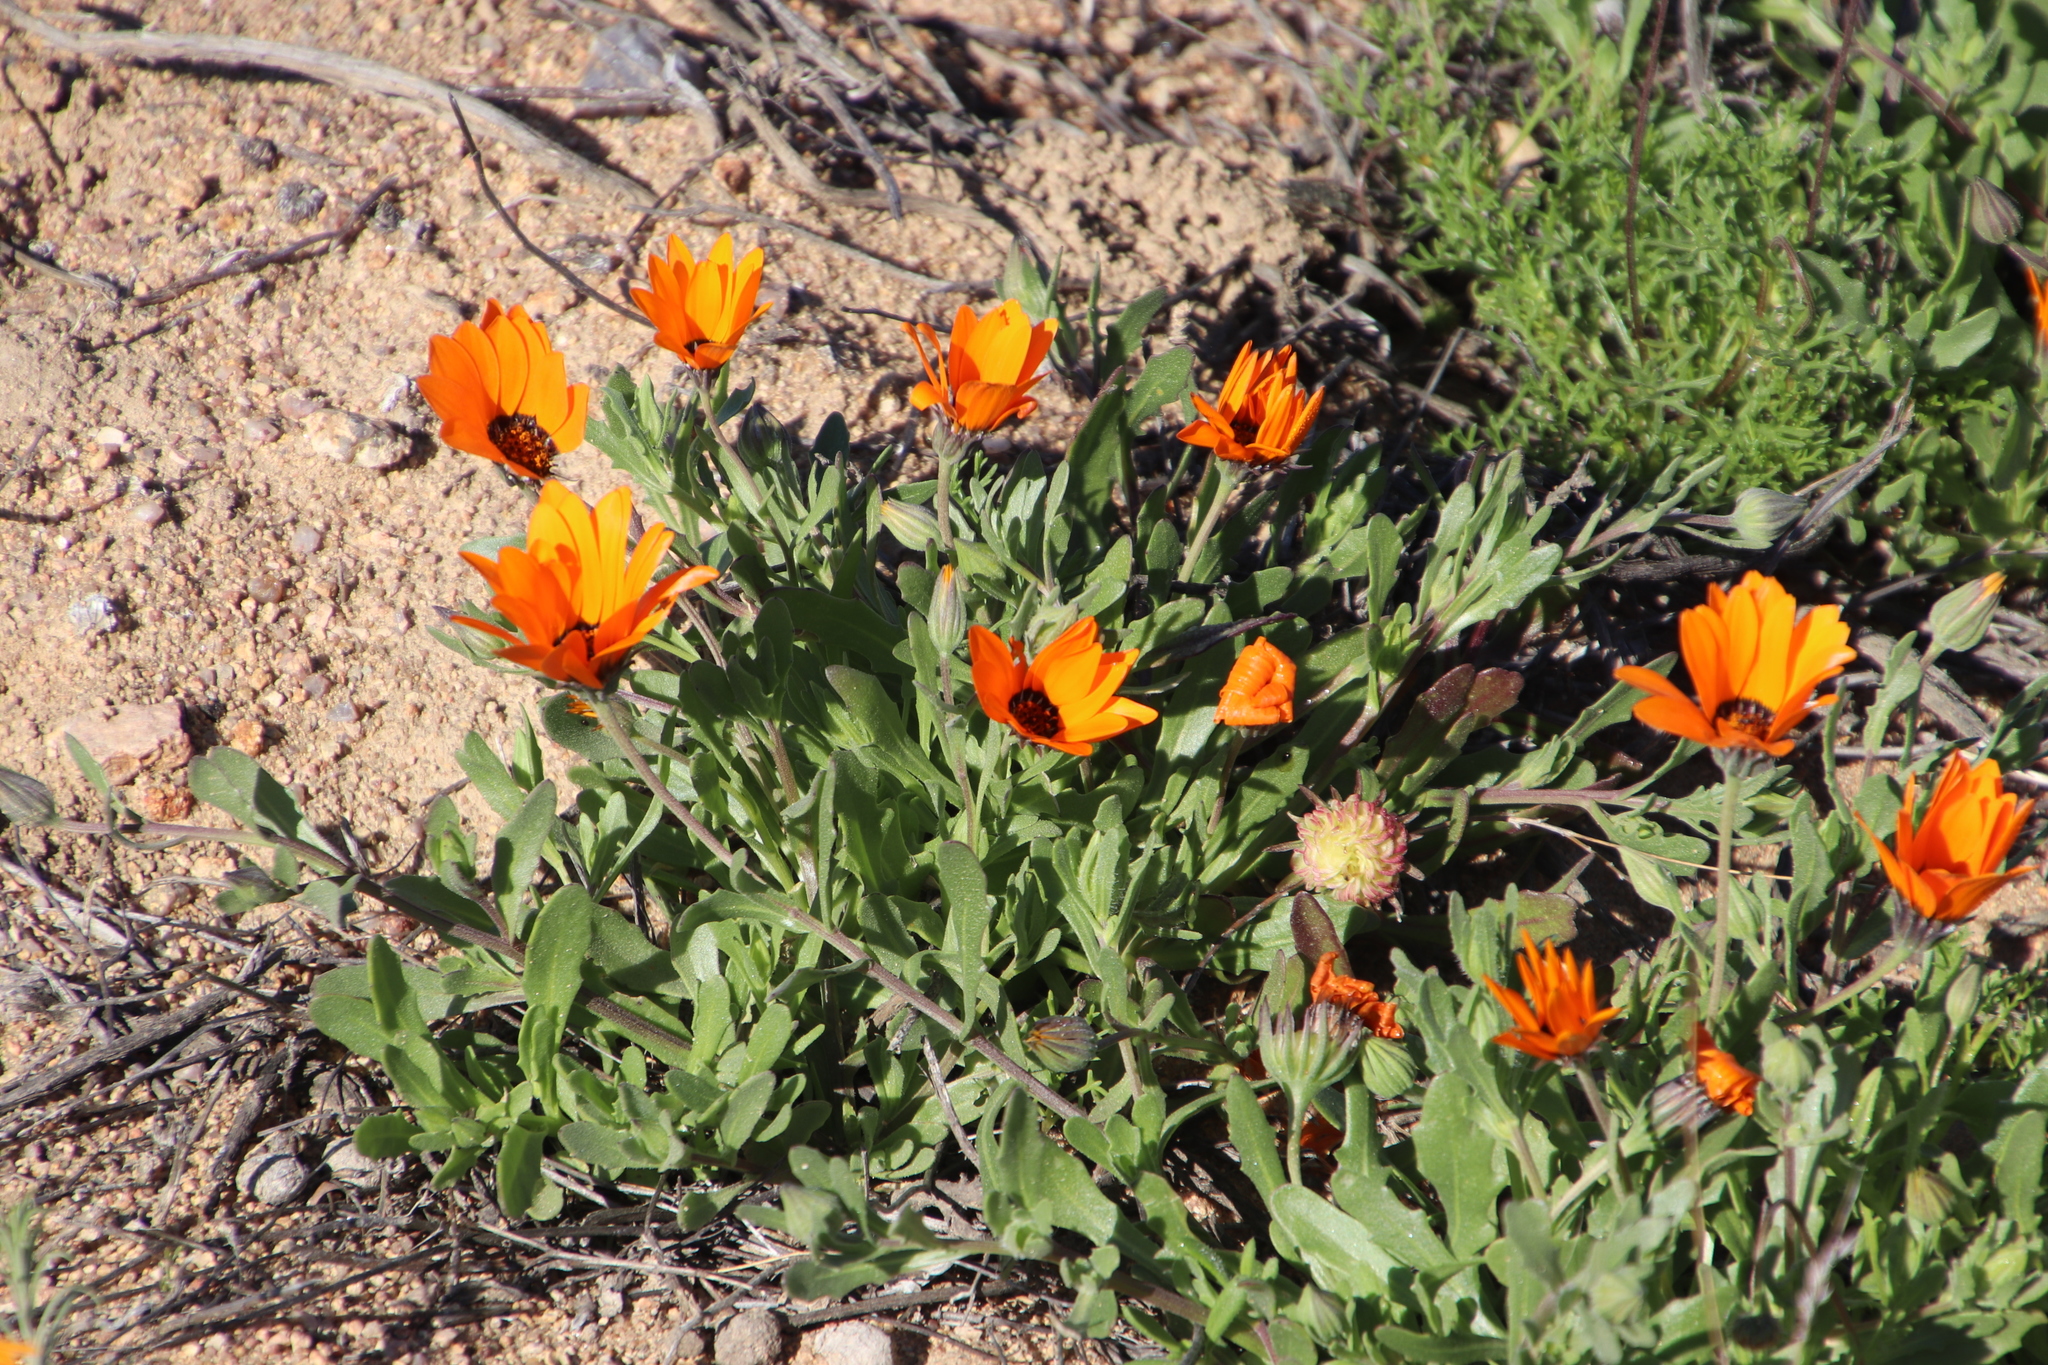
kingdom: Plantae
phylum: Tracheophyta
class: Magnoliopsida
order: Asterales
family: Asteraceae
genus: Dimorphotheca
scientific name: Dimorphotheca sinuata
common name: Glandular cape marigold
